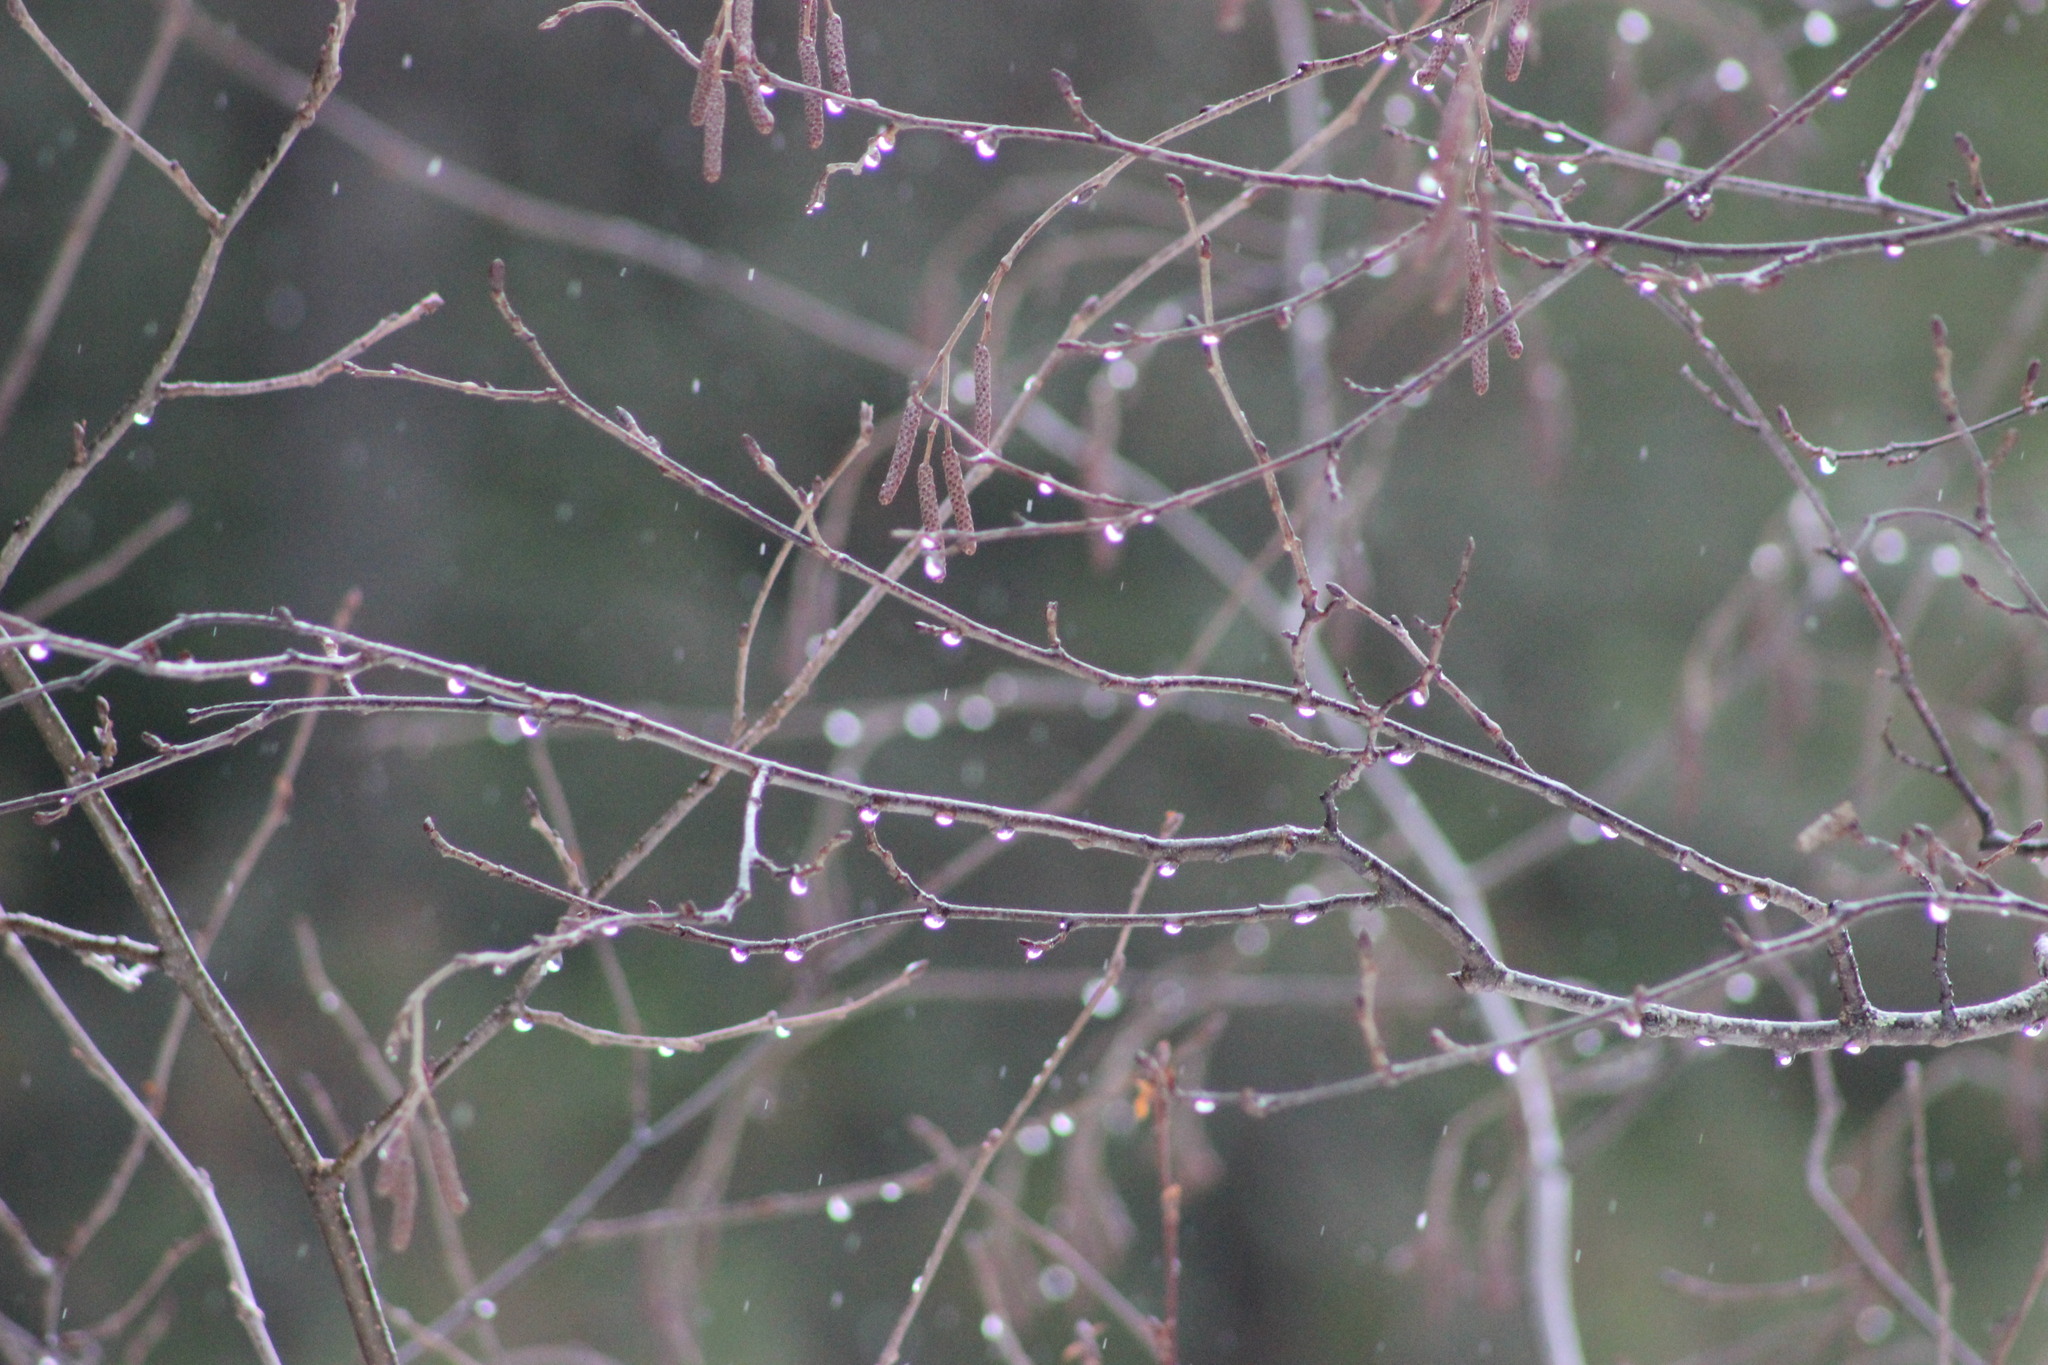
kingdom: Plantae
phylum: Tracheophyta
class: Magnoliopsida
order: Fagales
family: Betulaceae
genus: Alnus
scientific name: Alnus incana
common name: Grey alder
